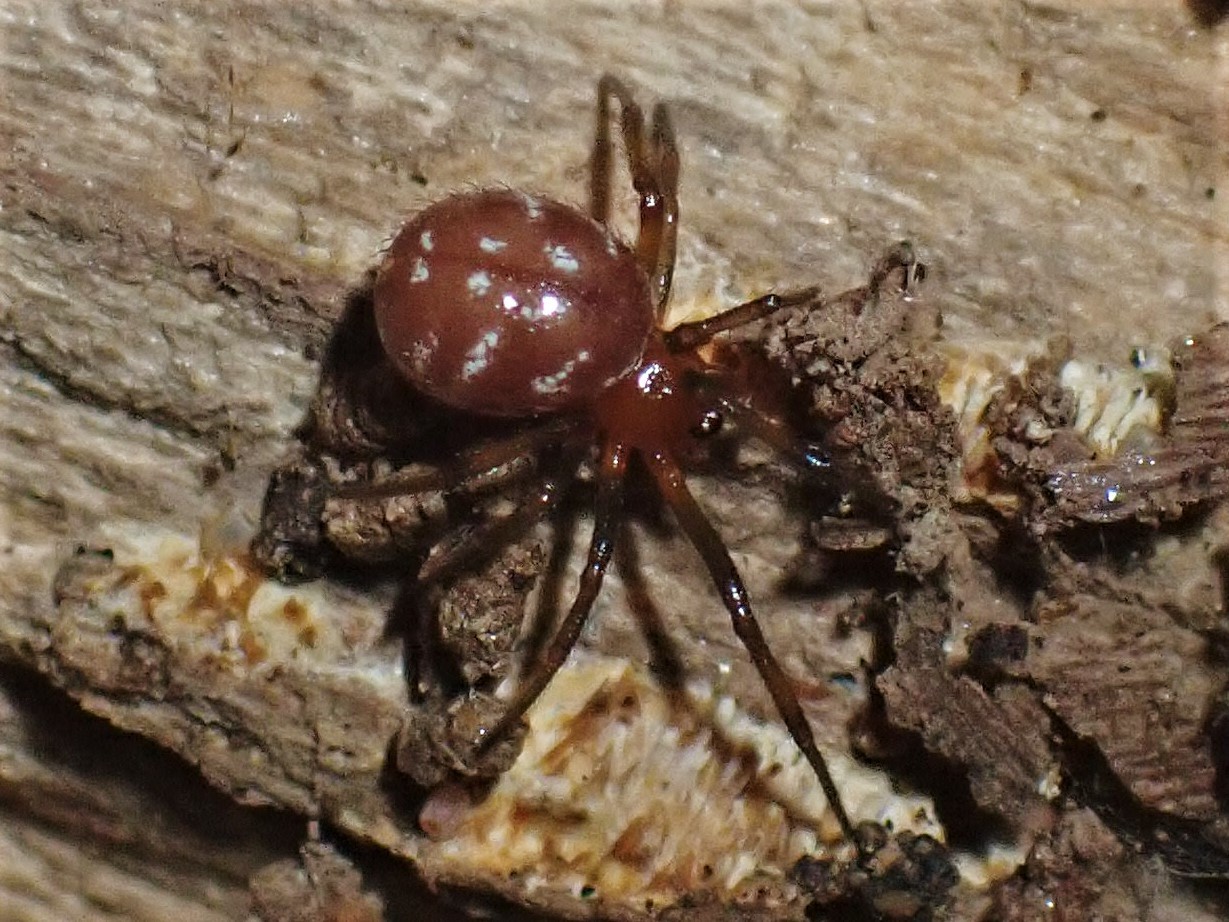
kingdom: Animalia
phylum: Arthropoda
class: Arachnida
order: Araneae
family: Theridiidae
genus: Steatoda
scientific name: Steatoda capensis
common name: Cobweb weaver
